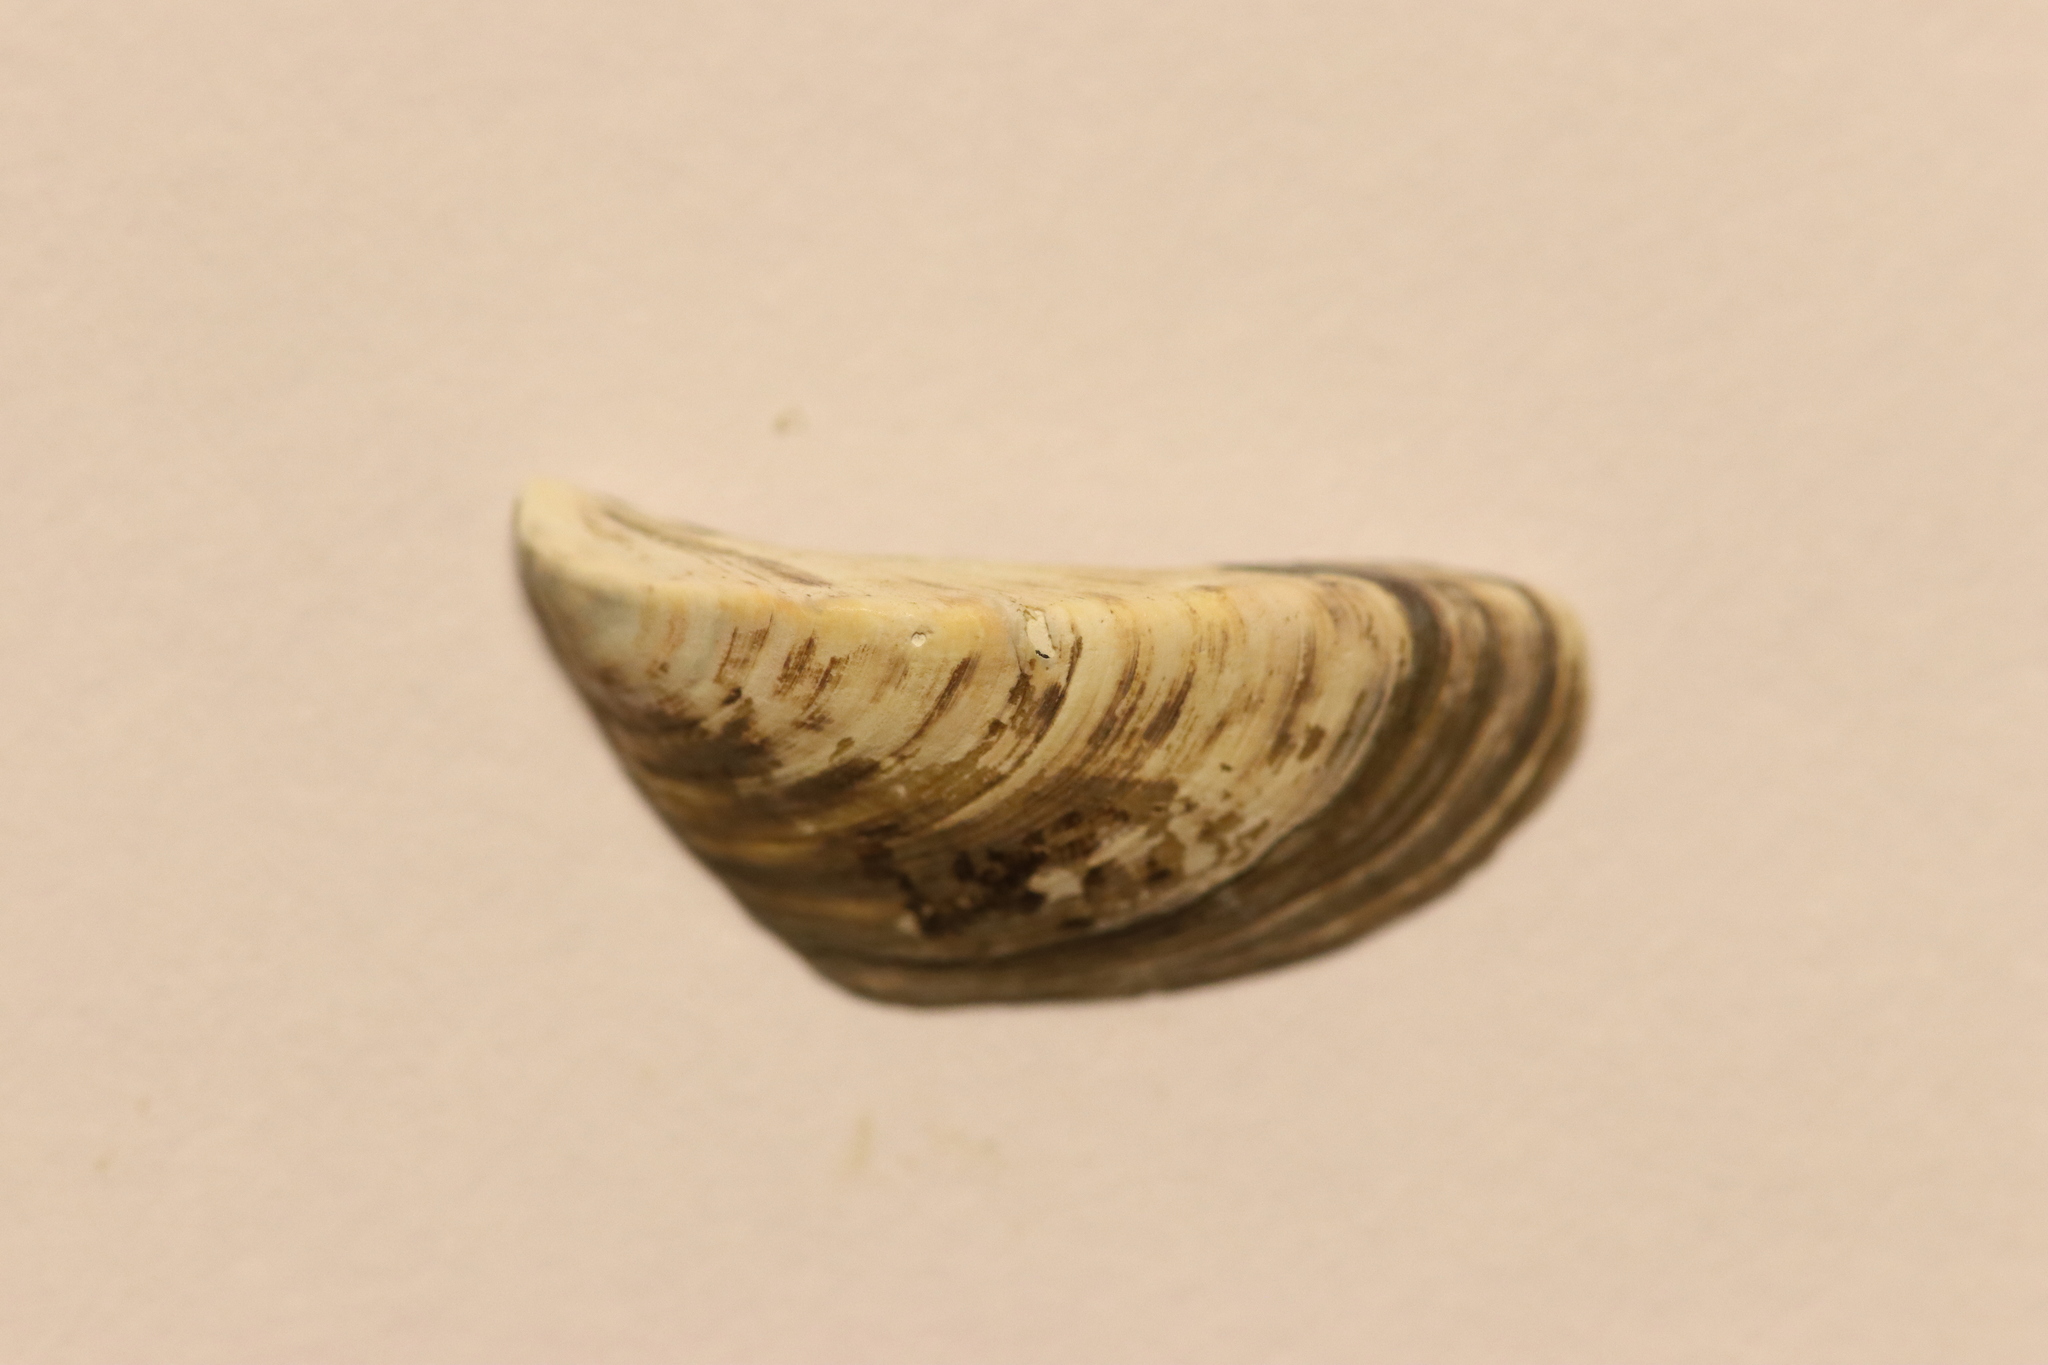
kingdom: Animalia
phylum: Mollusca
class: Bivalvia
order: Myida
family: Dreissenidae
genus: Dreissena
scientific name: Dreissena polymorpha
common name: Zebra mussel
